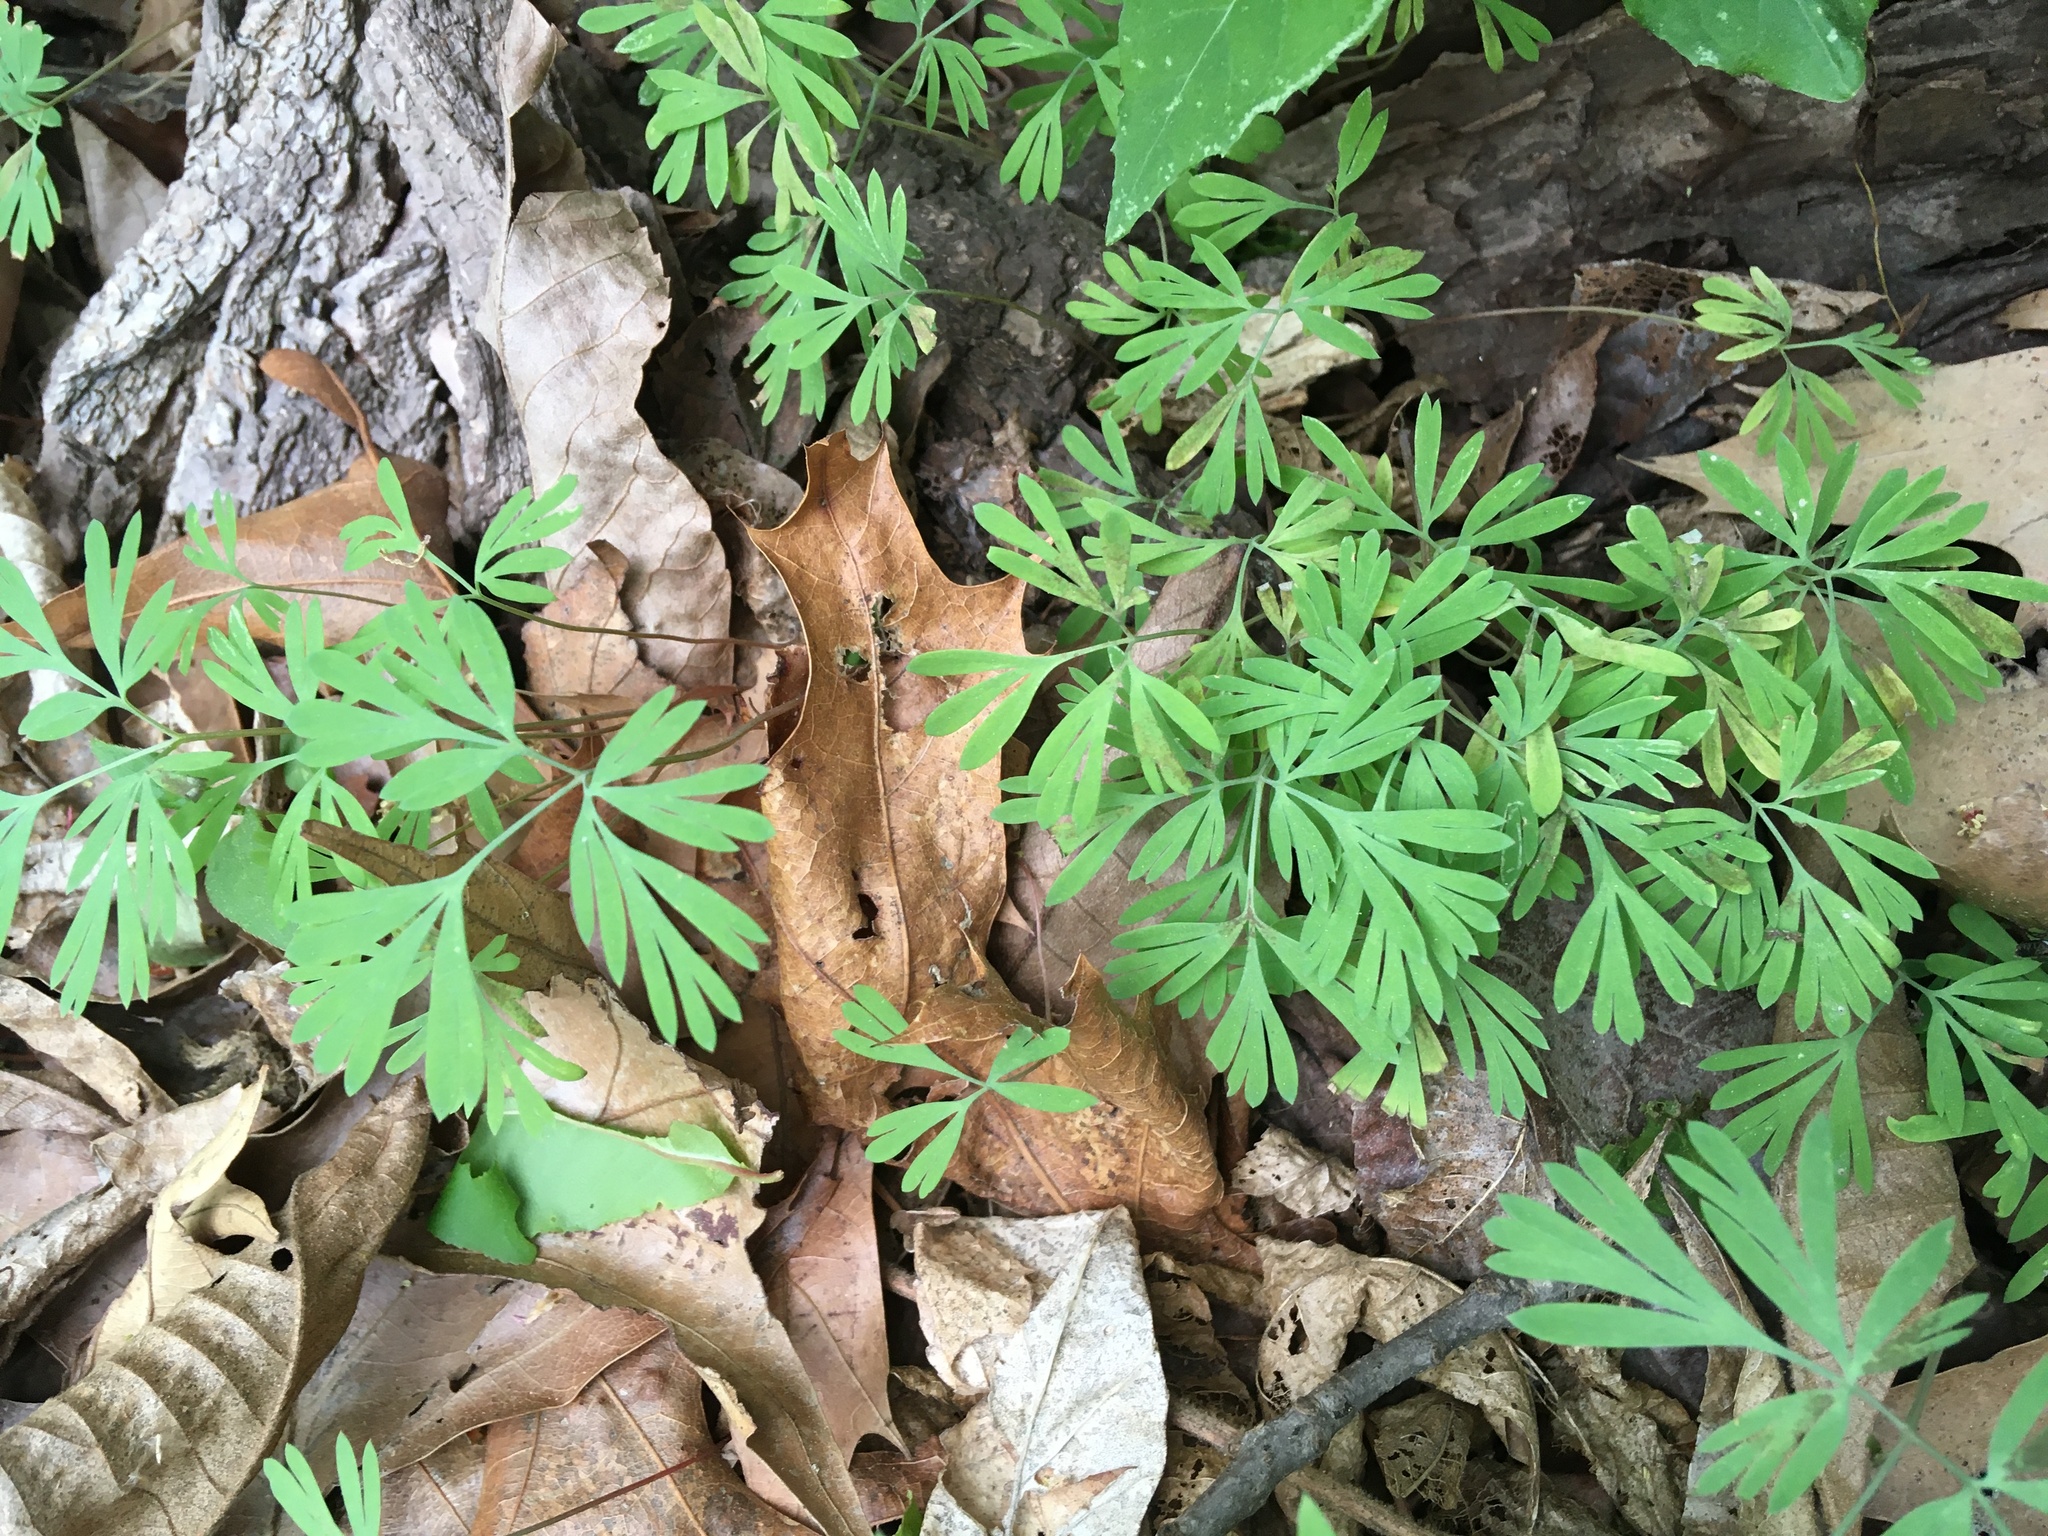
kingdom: Plantae
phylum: Tracheophyta
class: Magnoliopsida
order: Ranunculales
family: Papaveraceae
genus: Dicentra
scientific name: Dicentra cucullaria
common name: Dutchman's breeches
